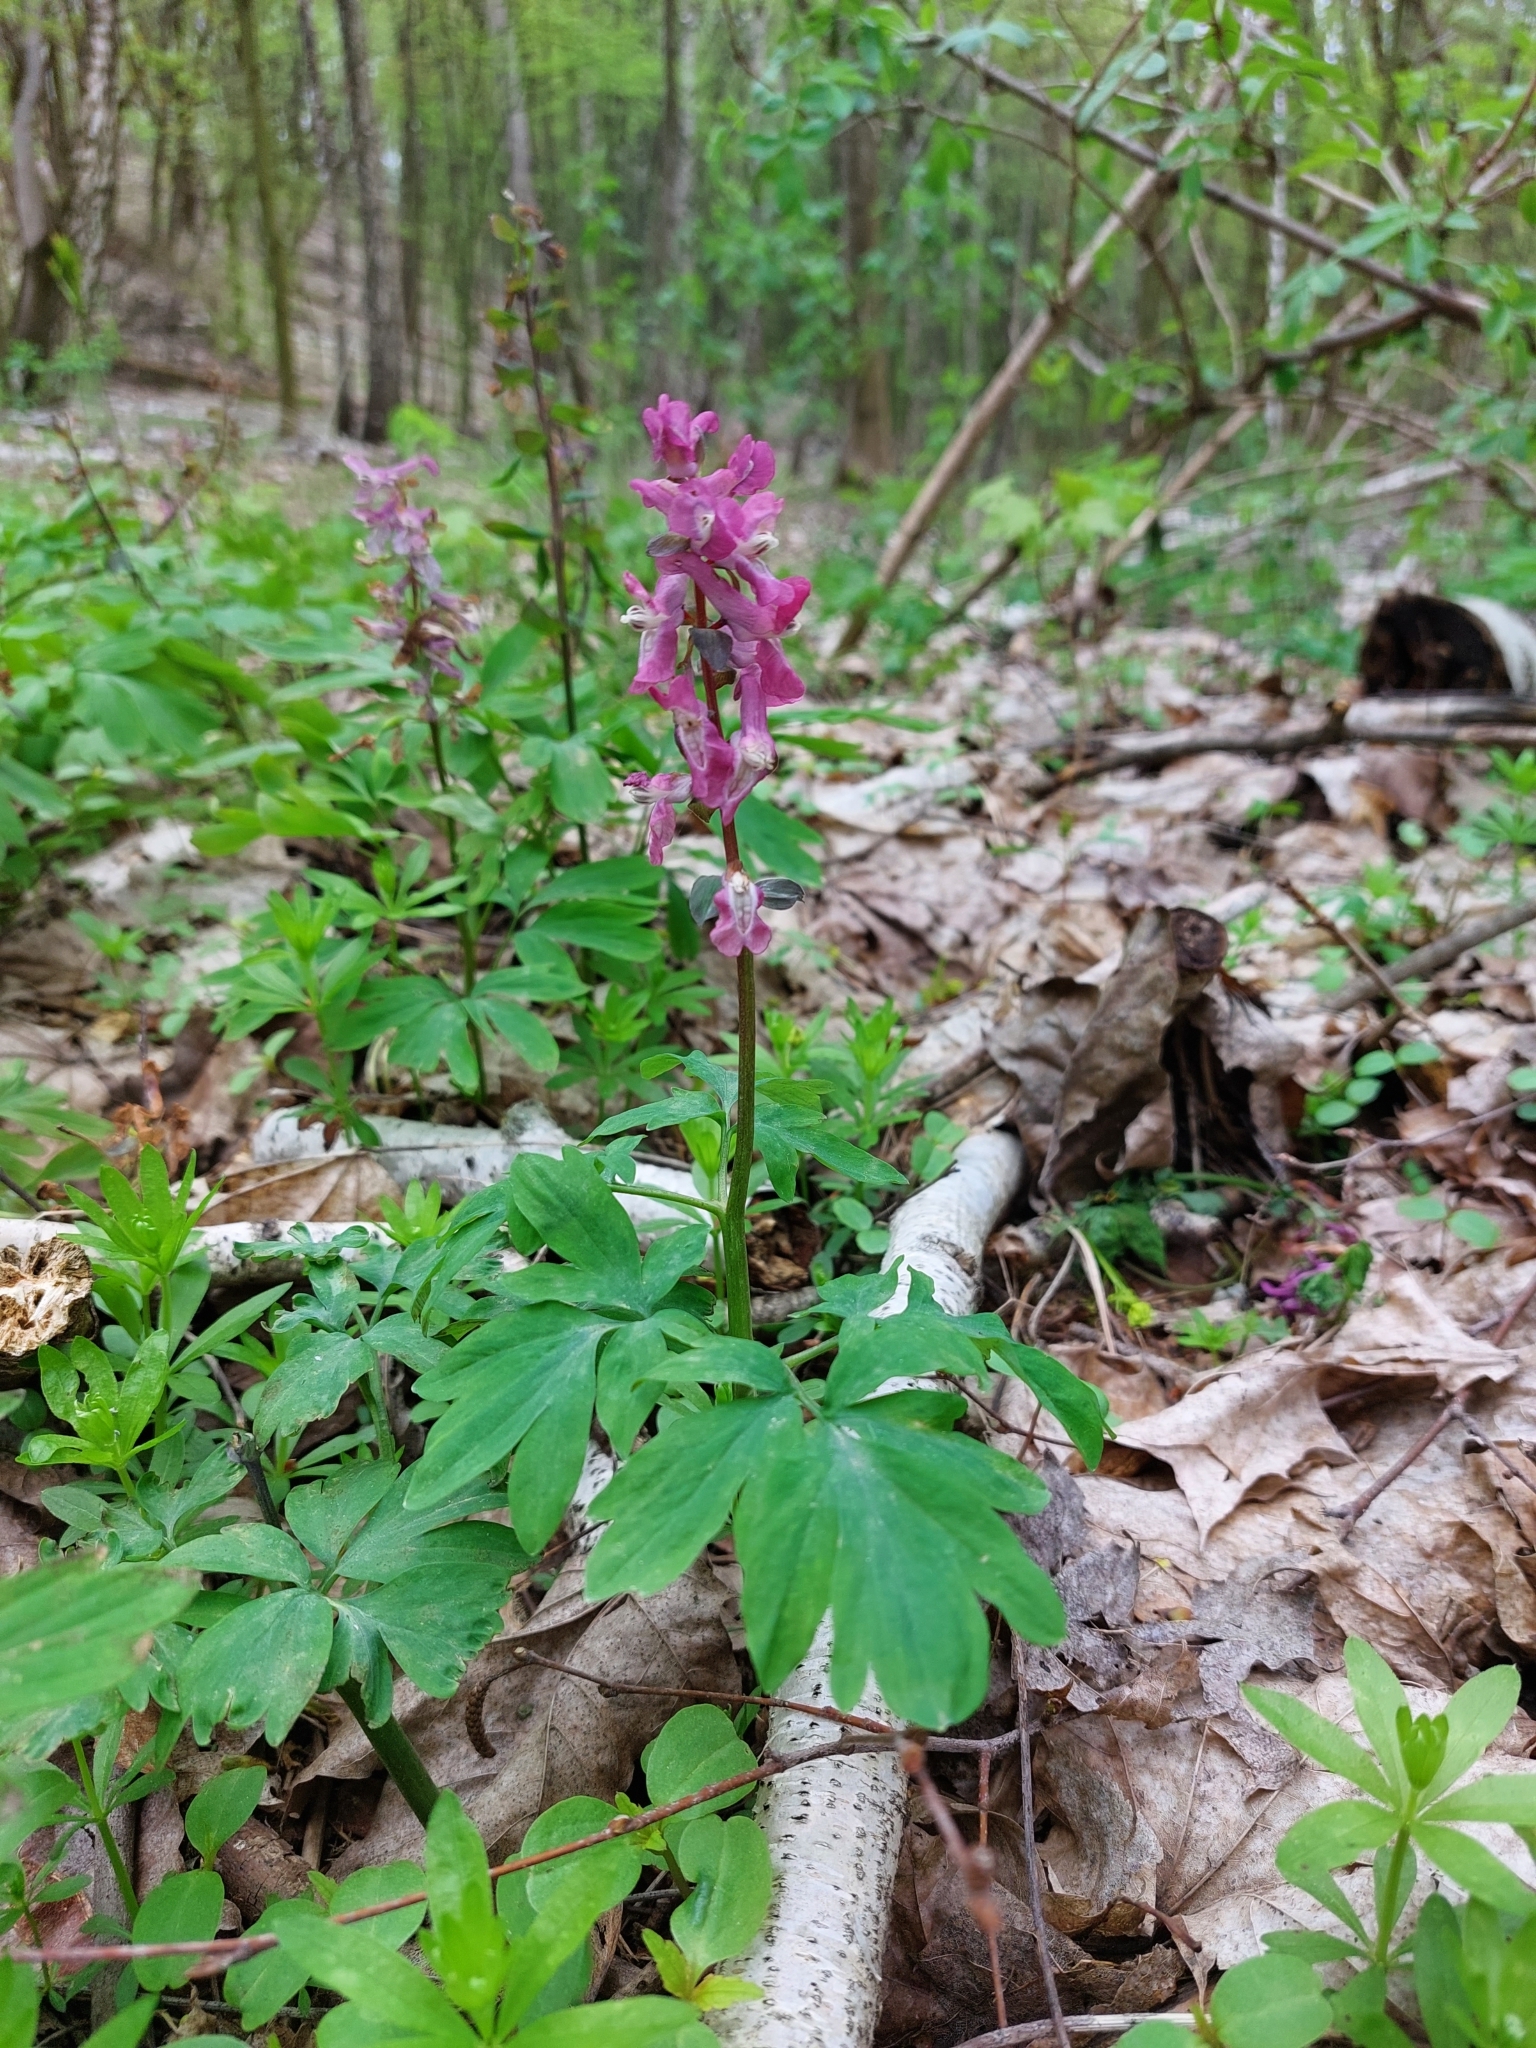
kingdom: Plantae
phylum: Tracheophyta
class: Magnoliopsida
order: Ranunculales
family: Papaveraceae
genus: Corydalis
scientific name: Corydalis cava
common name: Hollowroot
